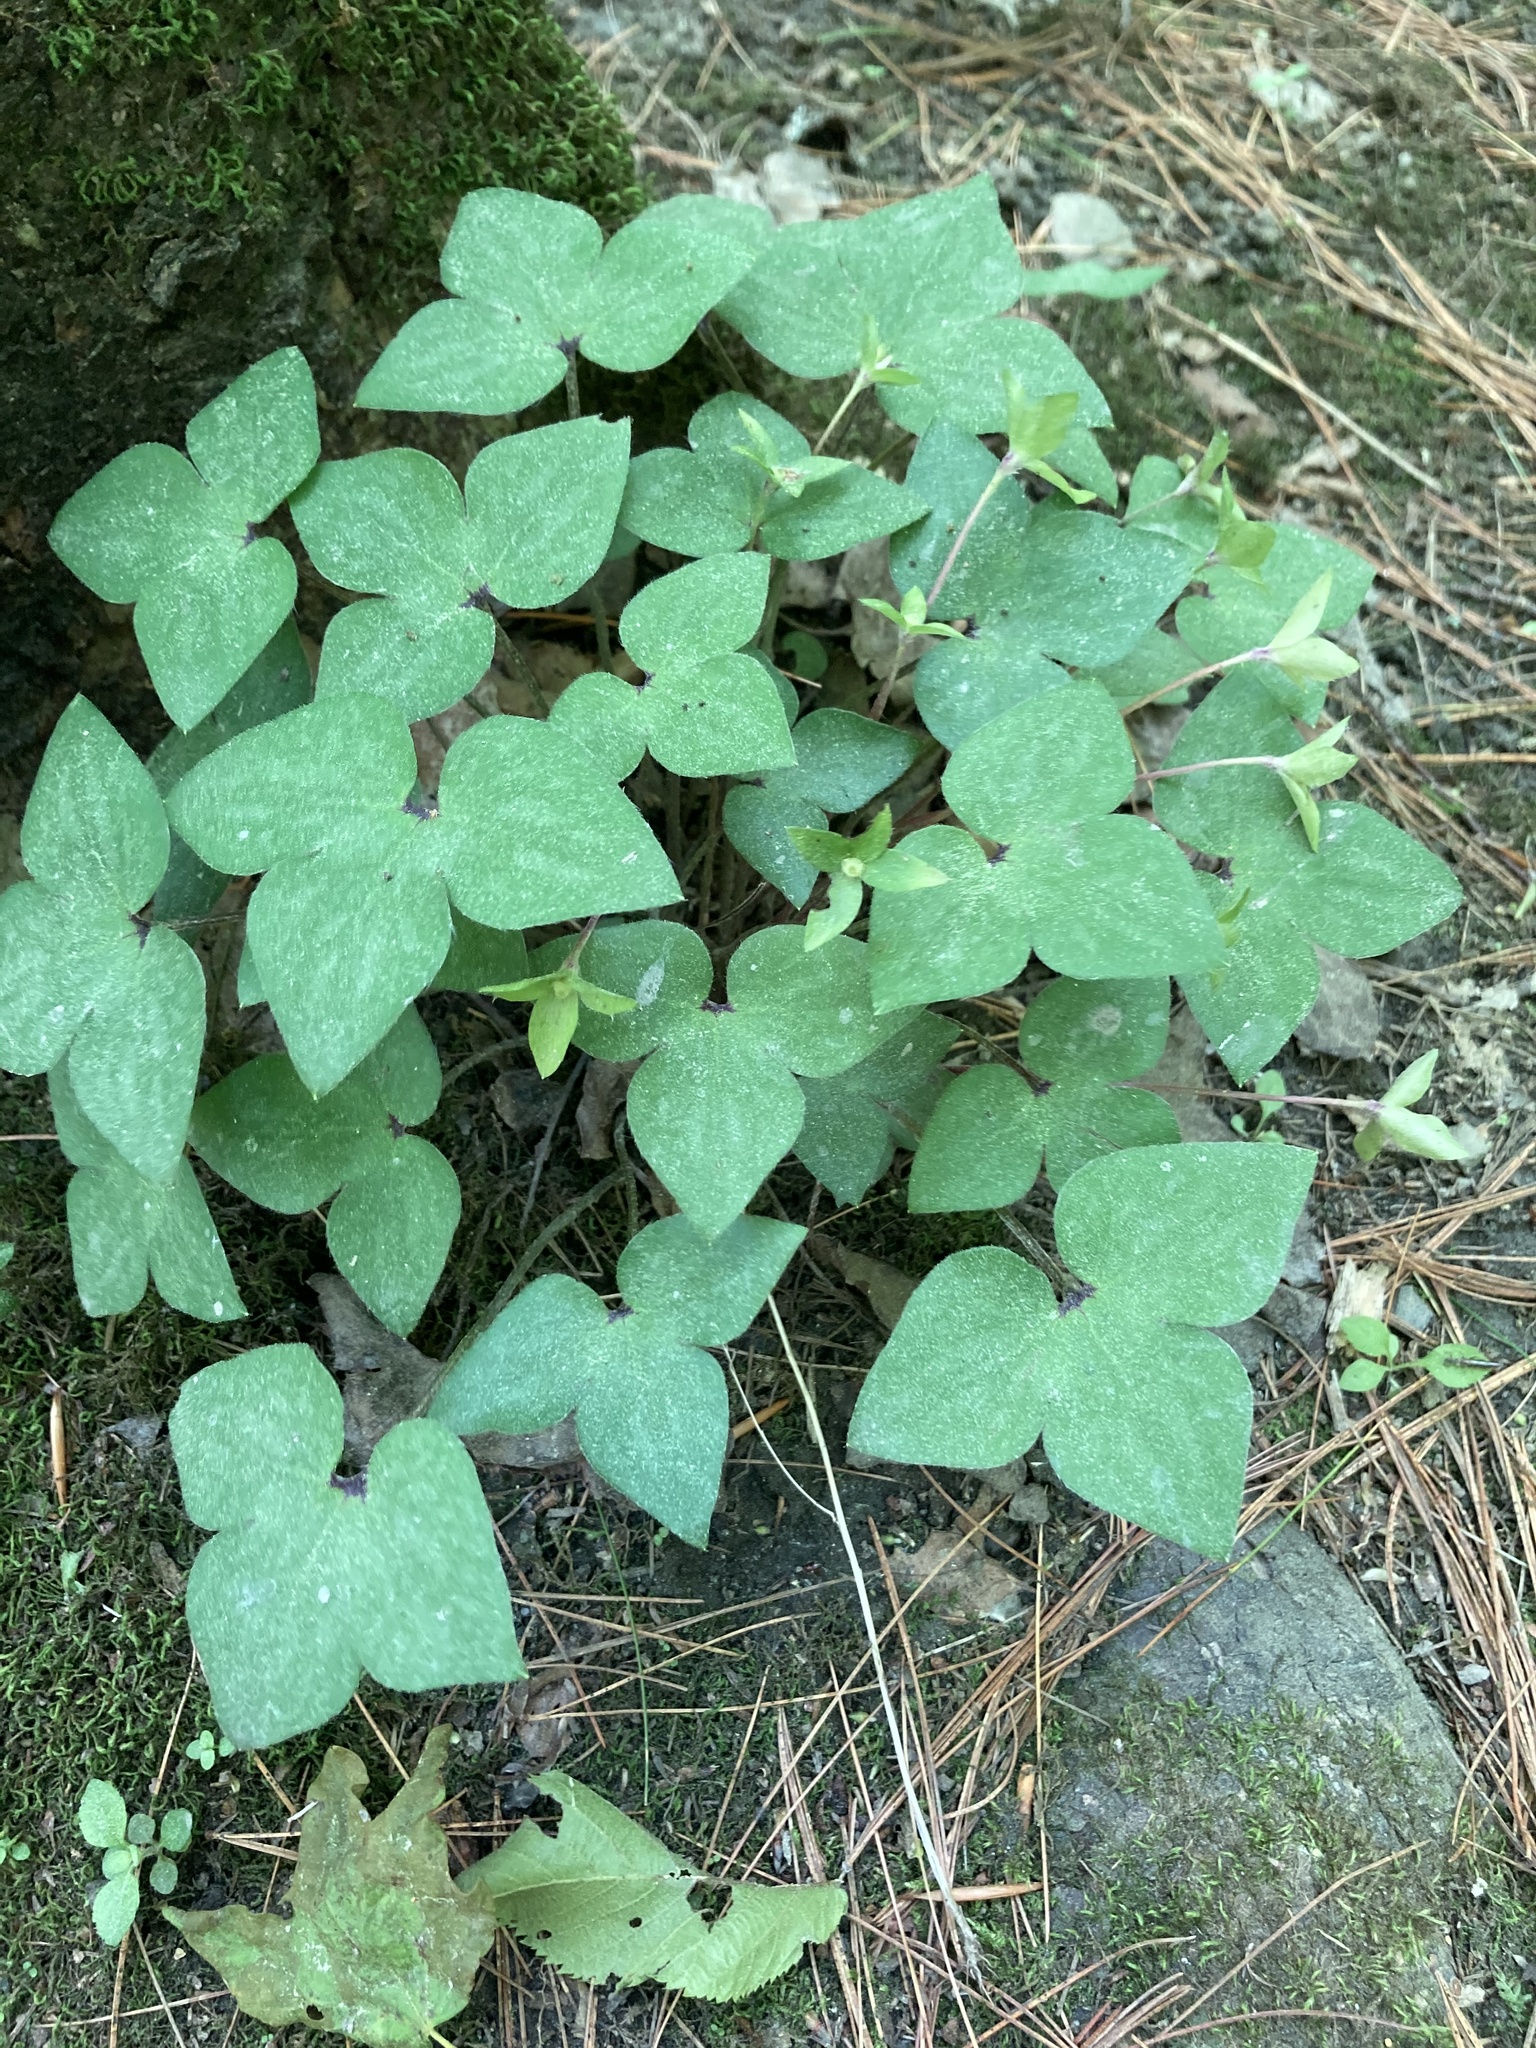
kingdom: Plantae
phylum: Tracheophyta
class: Magnoliopsida
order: Ranunculales
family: Ranunculaceae
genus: Hepatica
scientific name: Hepatica acutiloba
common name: Sharp-lobed hepatica
